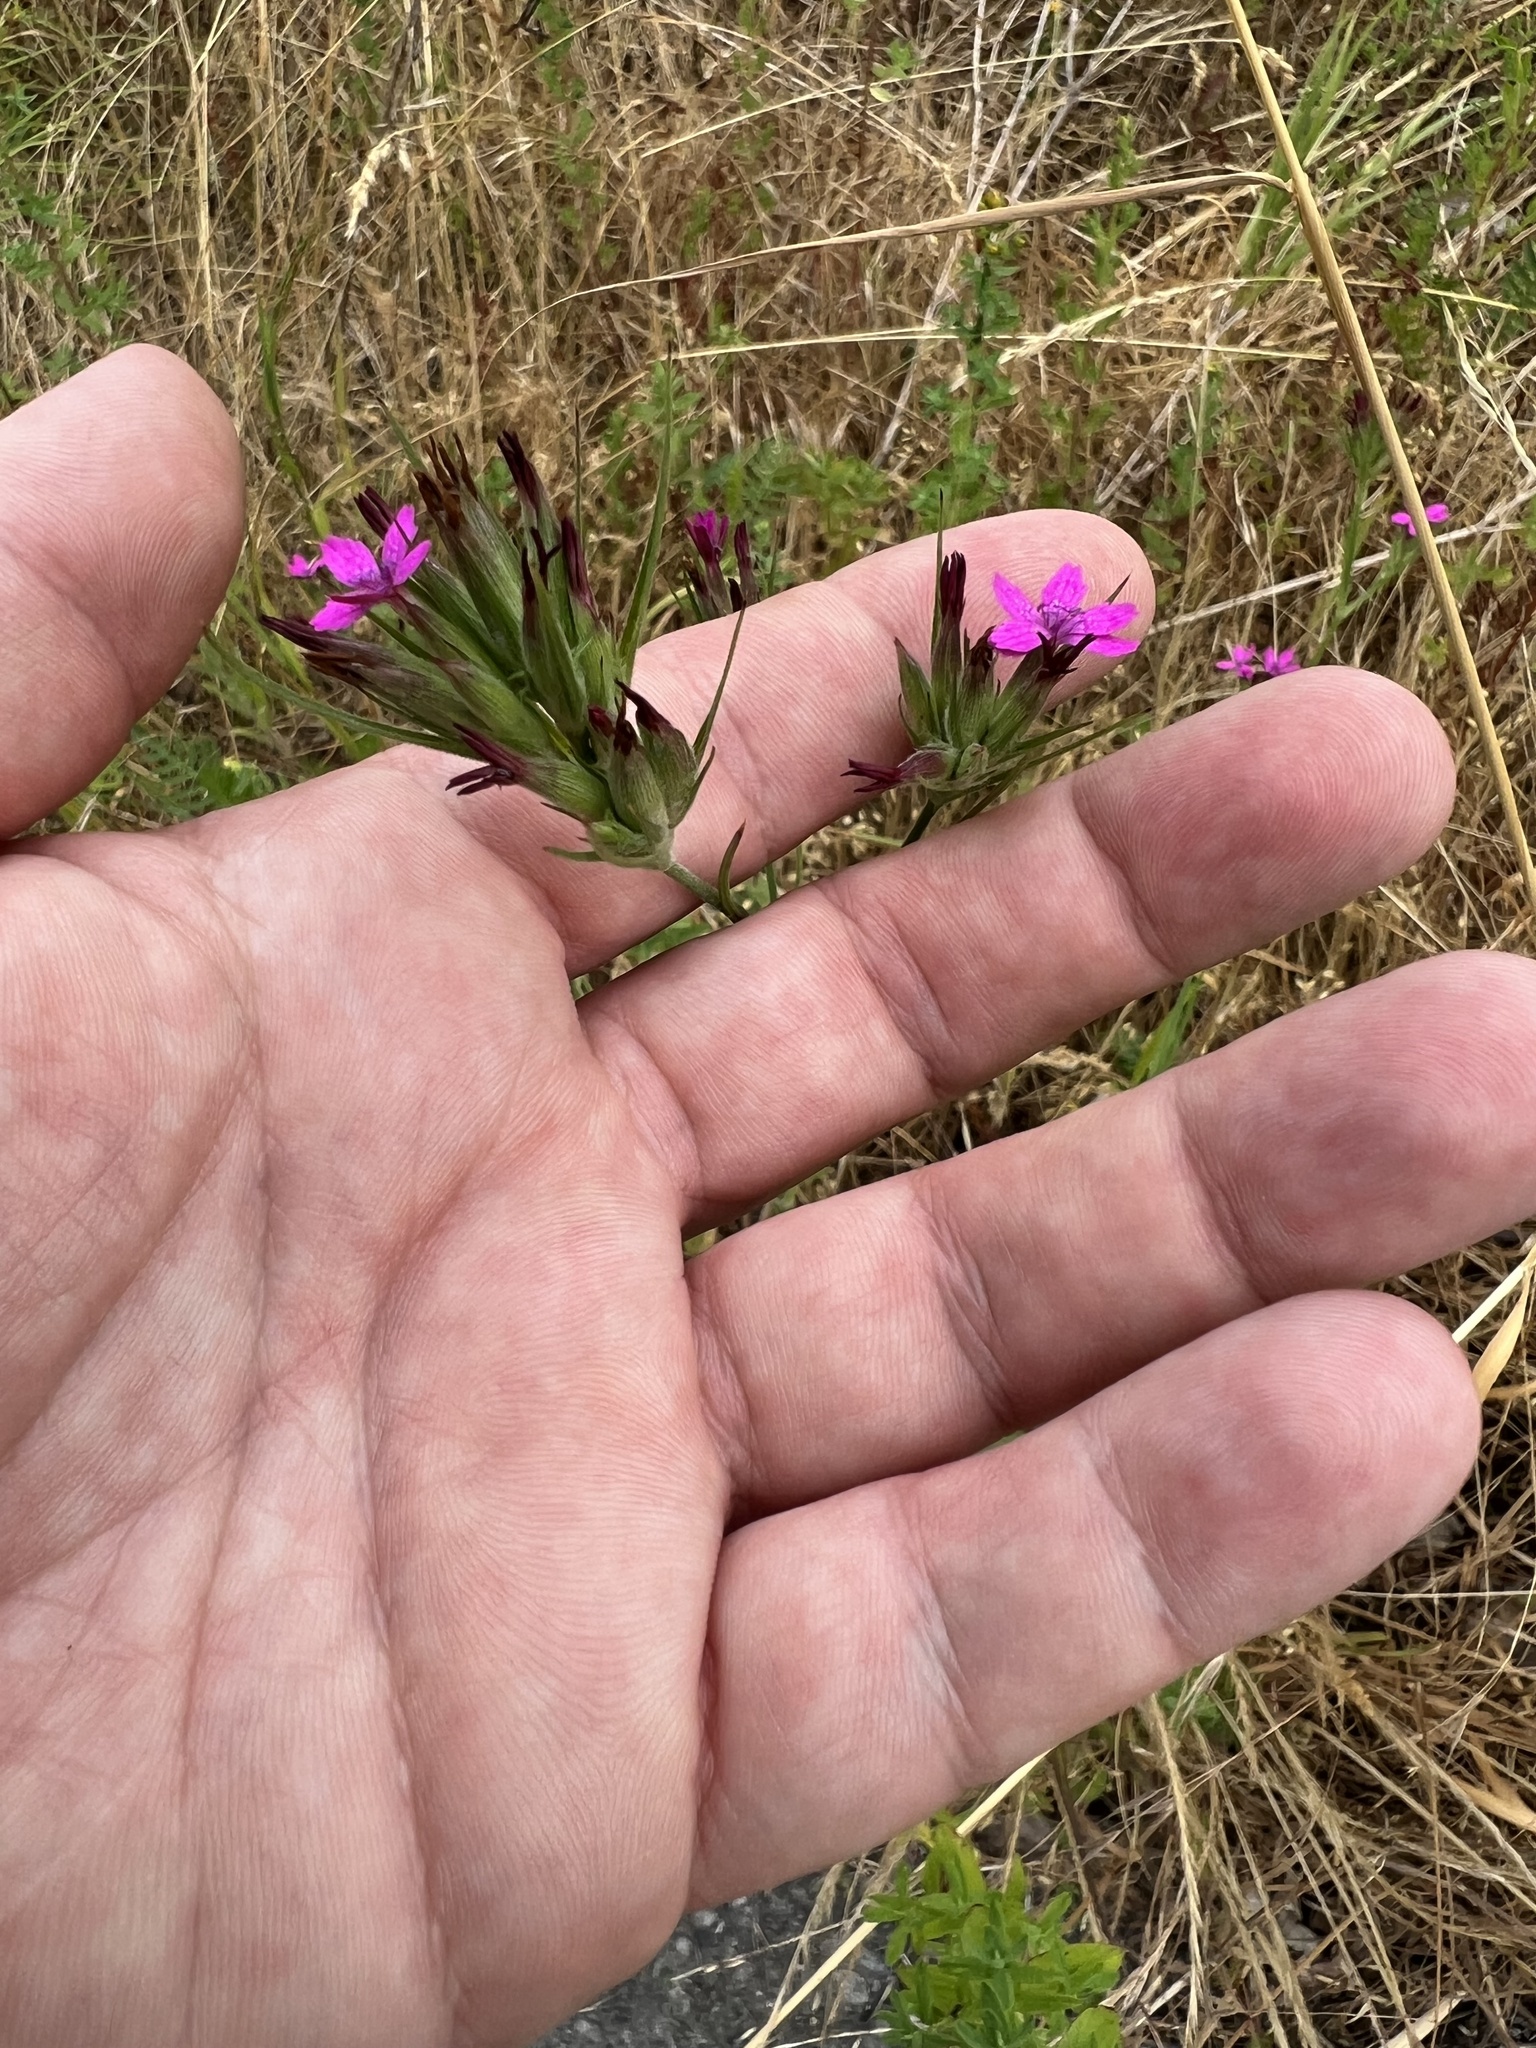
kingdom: Plantae
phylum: Tracheophyta
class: Magnoliopsida
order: Caryophyllales
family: Caryophyllaceae
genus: Dianthus
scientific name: Dianthus armeria
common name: Deptford pink
